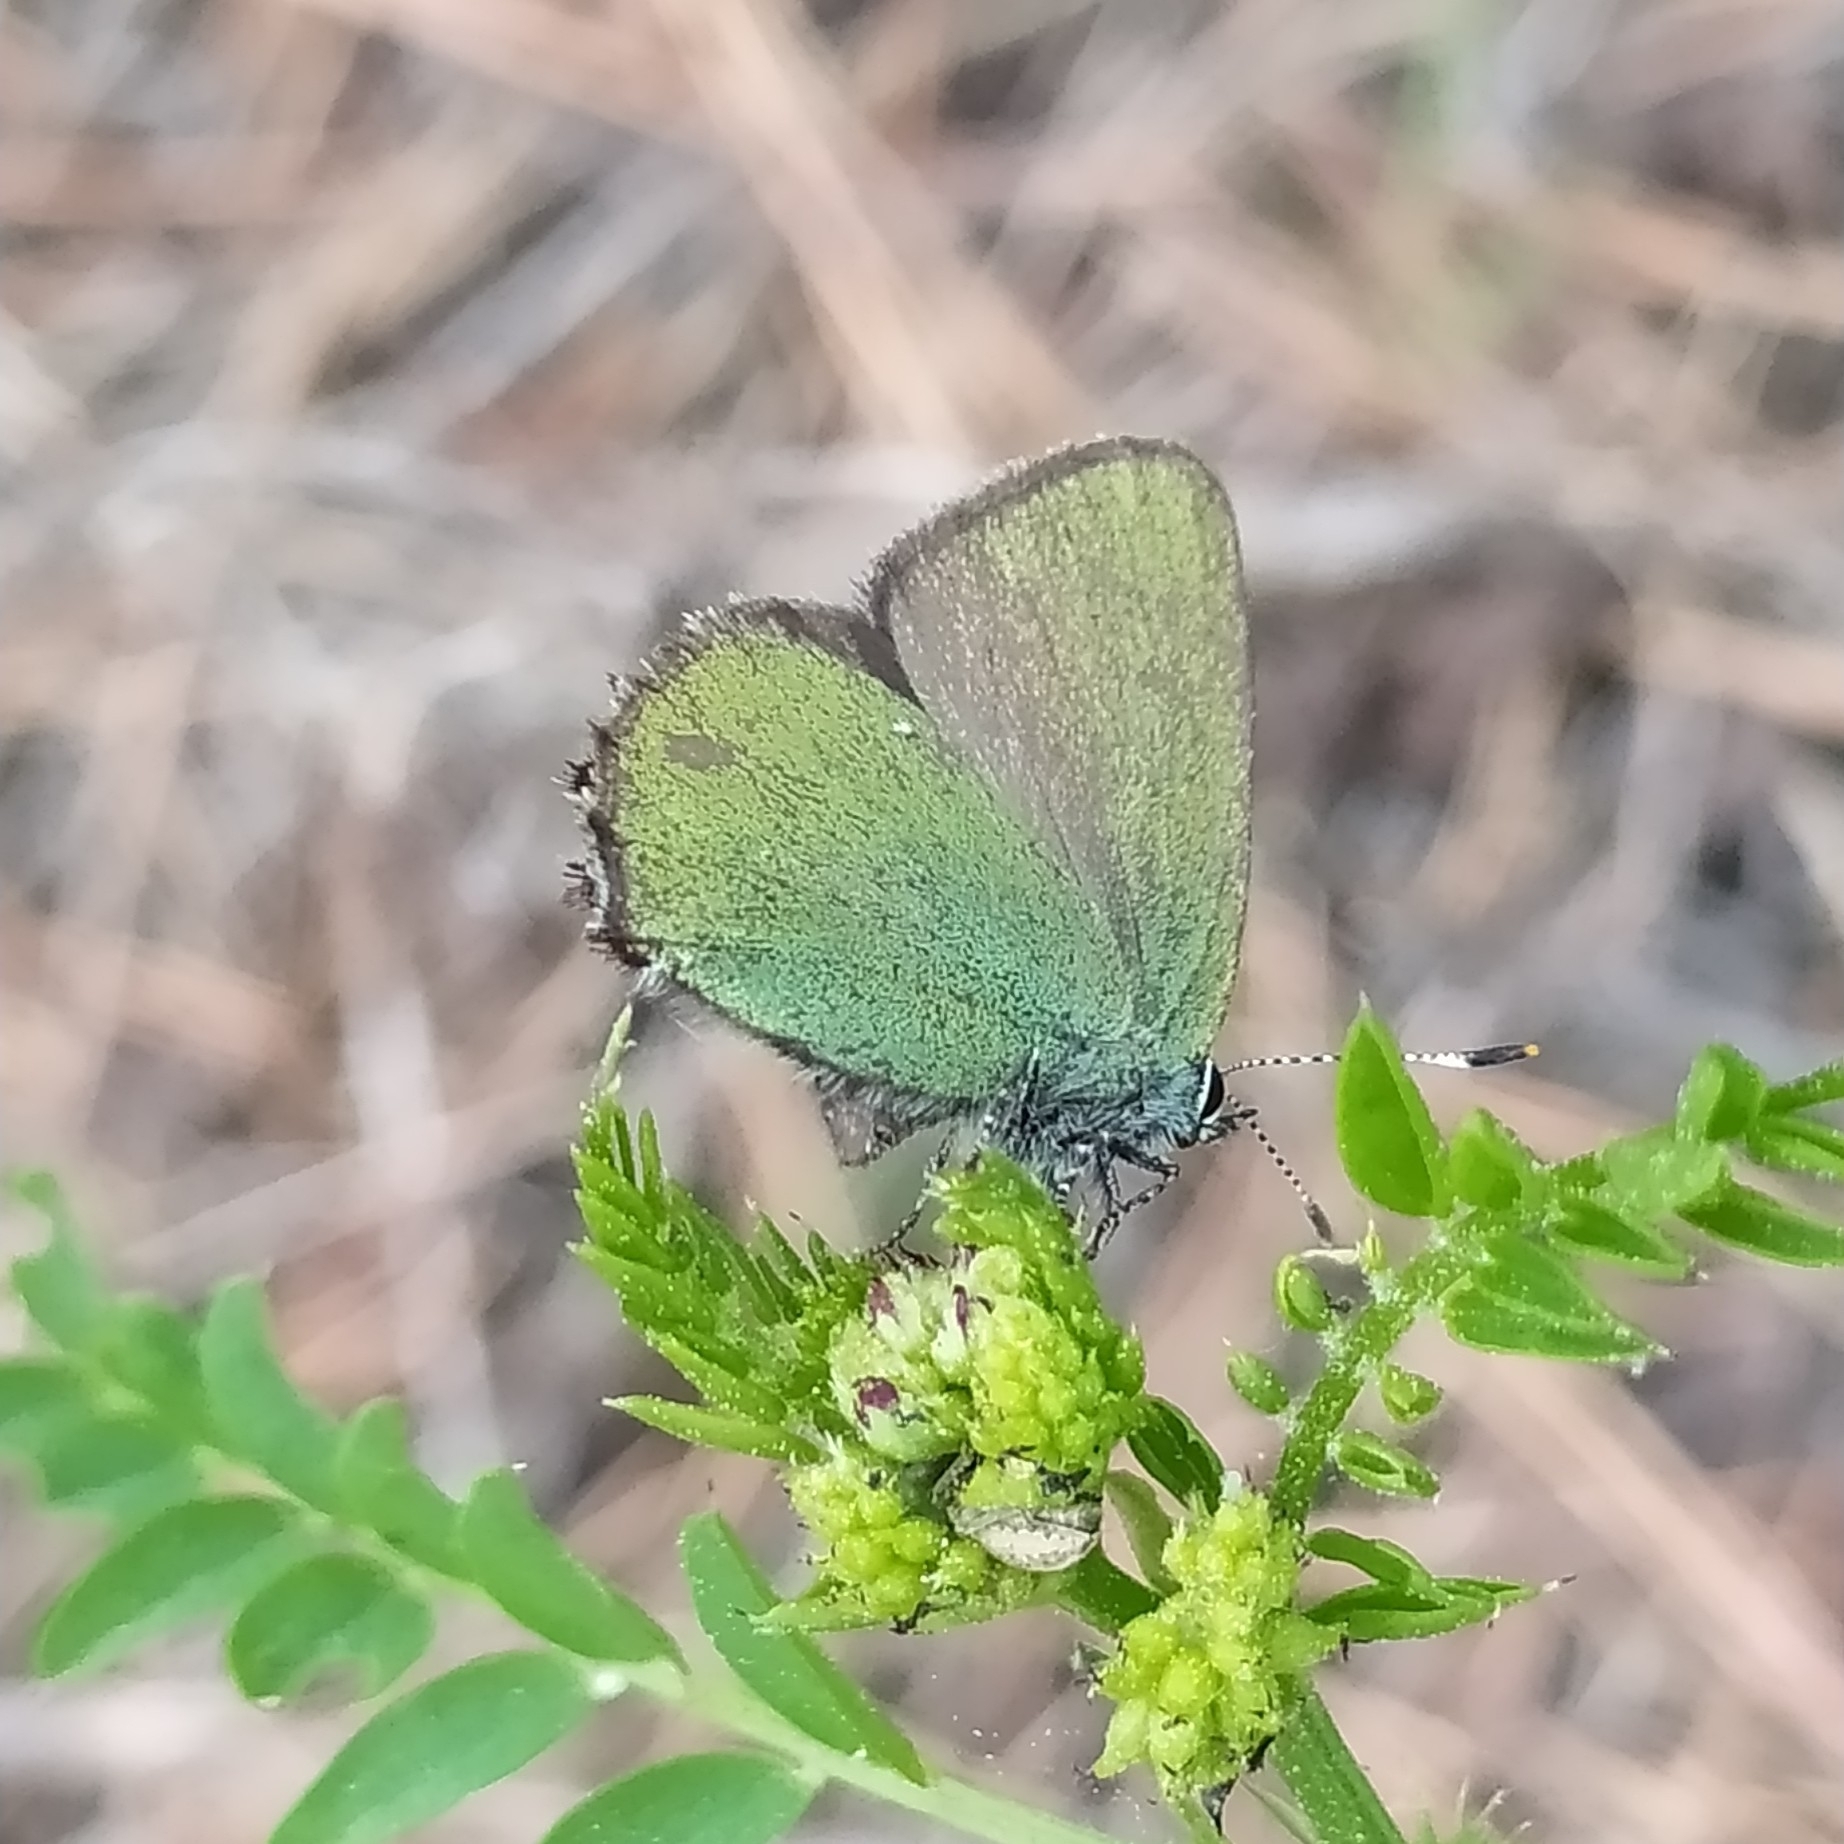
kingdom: Animalia
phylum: Arthropoda
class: Insecta
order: Lepidoptera
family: Lycaenidae
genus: Callophrys
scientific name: Callophrys rubi
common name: Green hairstreak
